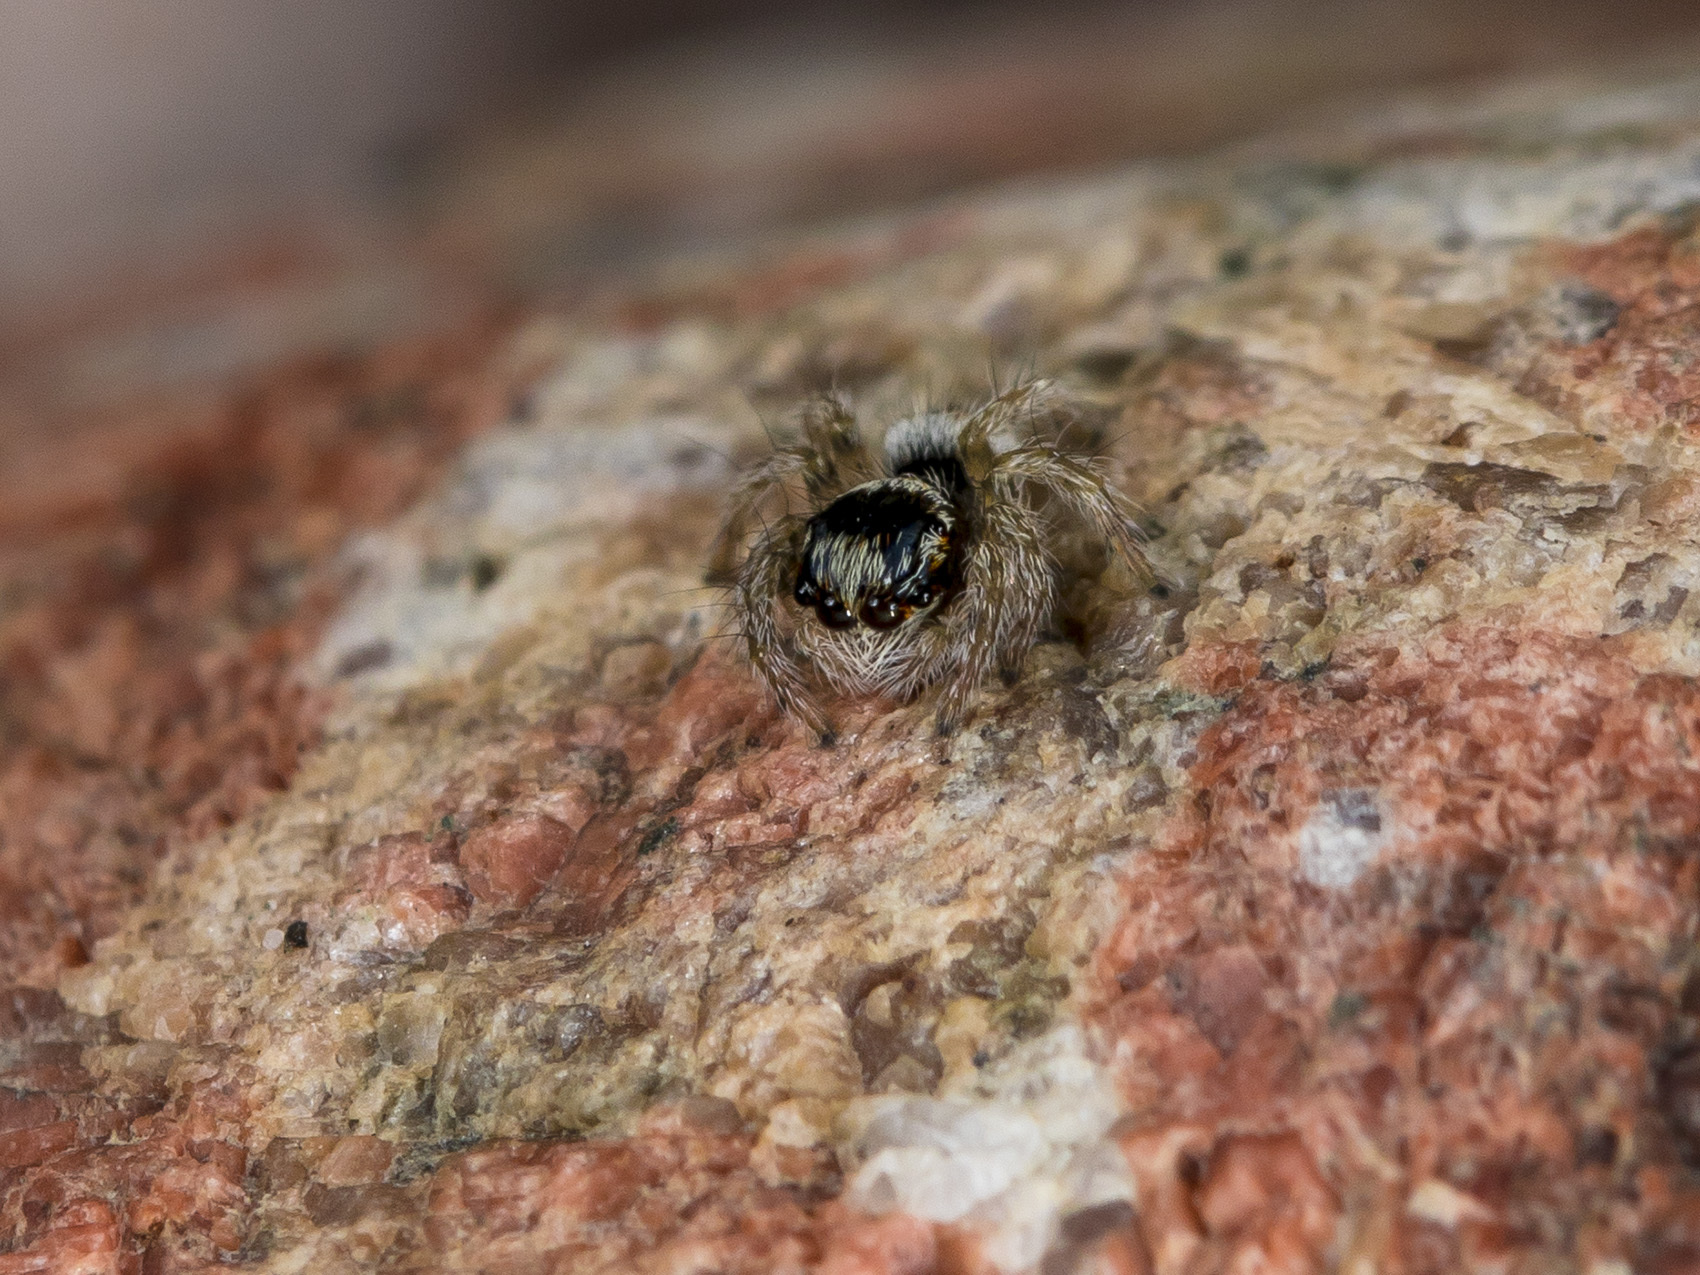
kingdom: Animalia
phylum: Arthropoda
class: Arachnida
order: Araneae
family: Salticidae
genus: Philaeus
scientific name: Philaeus chrysops
